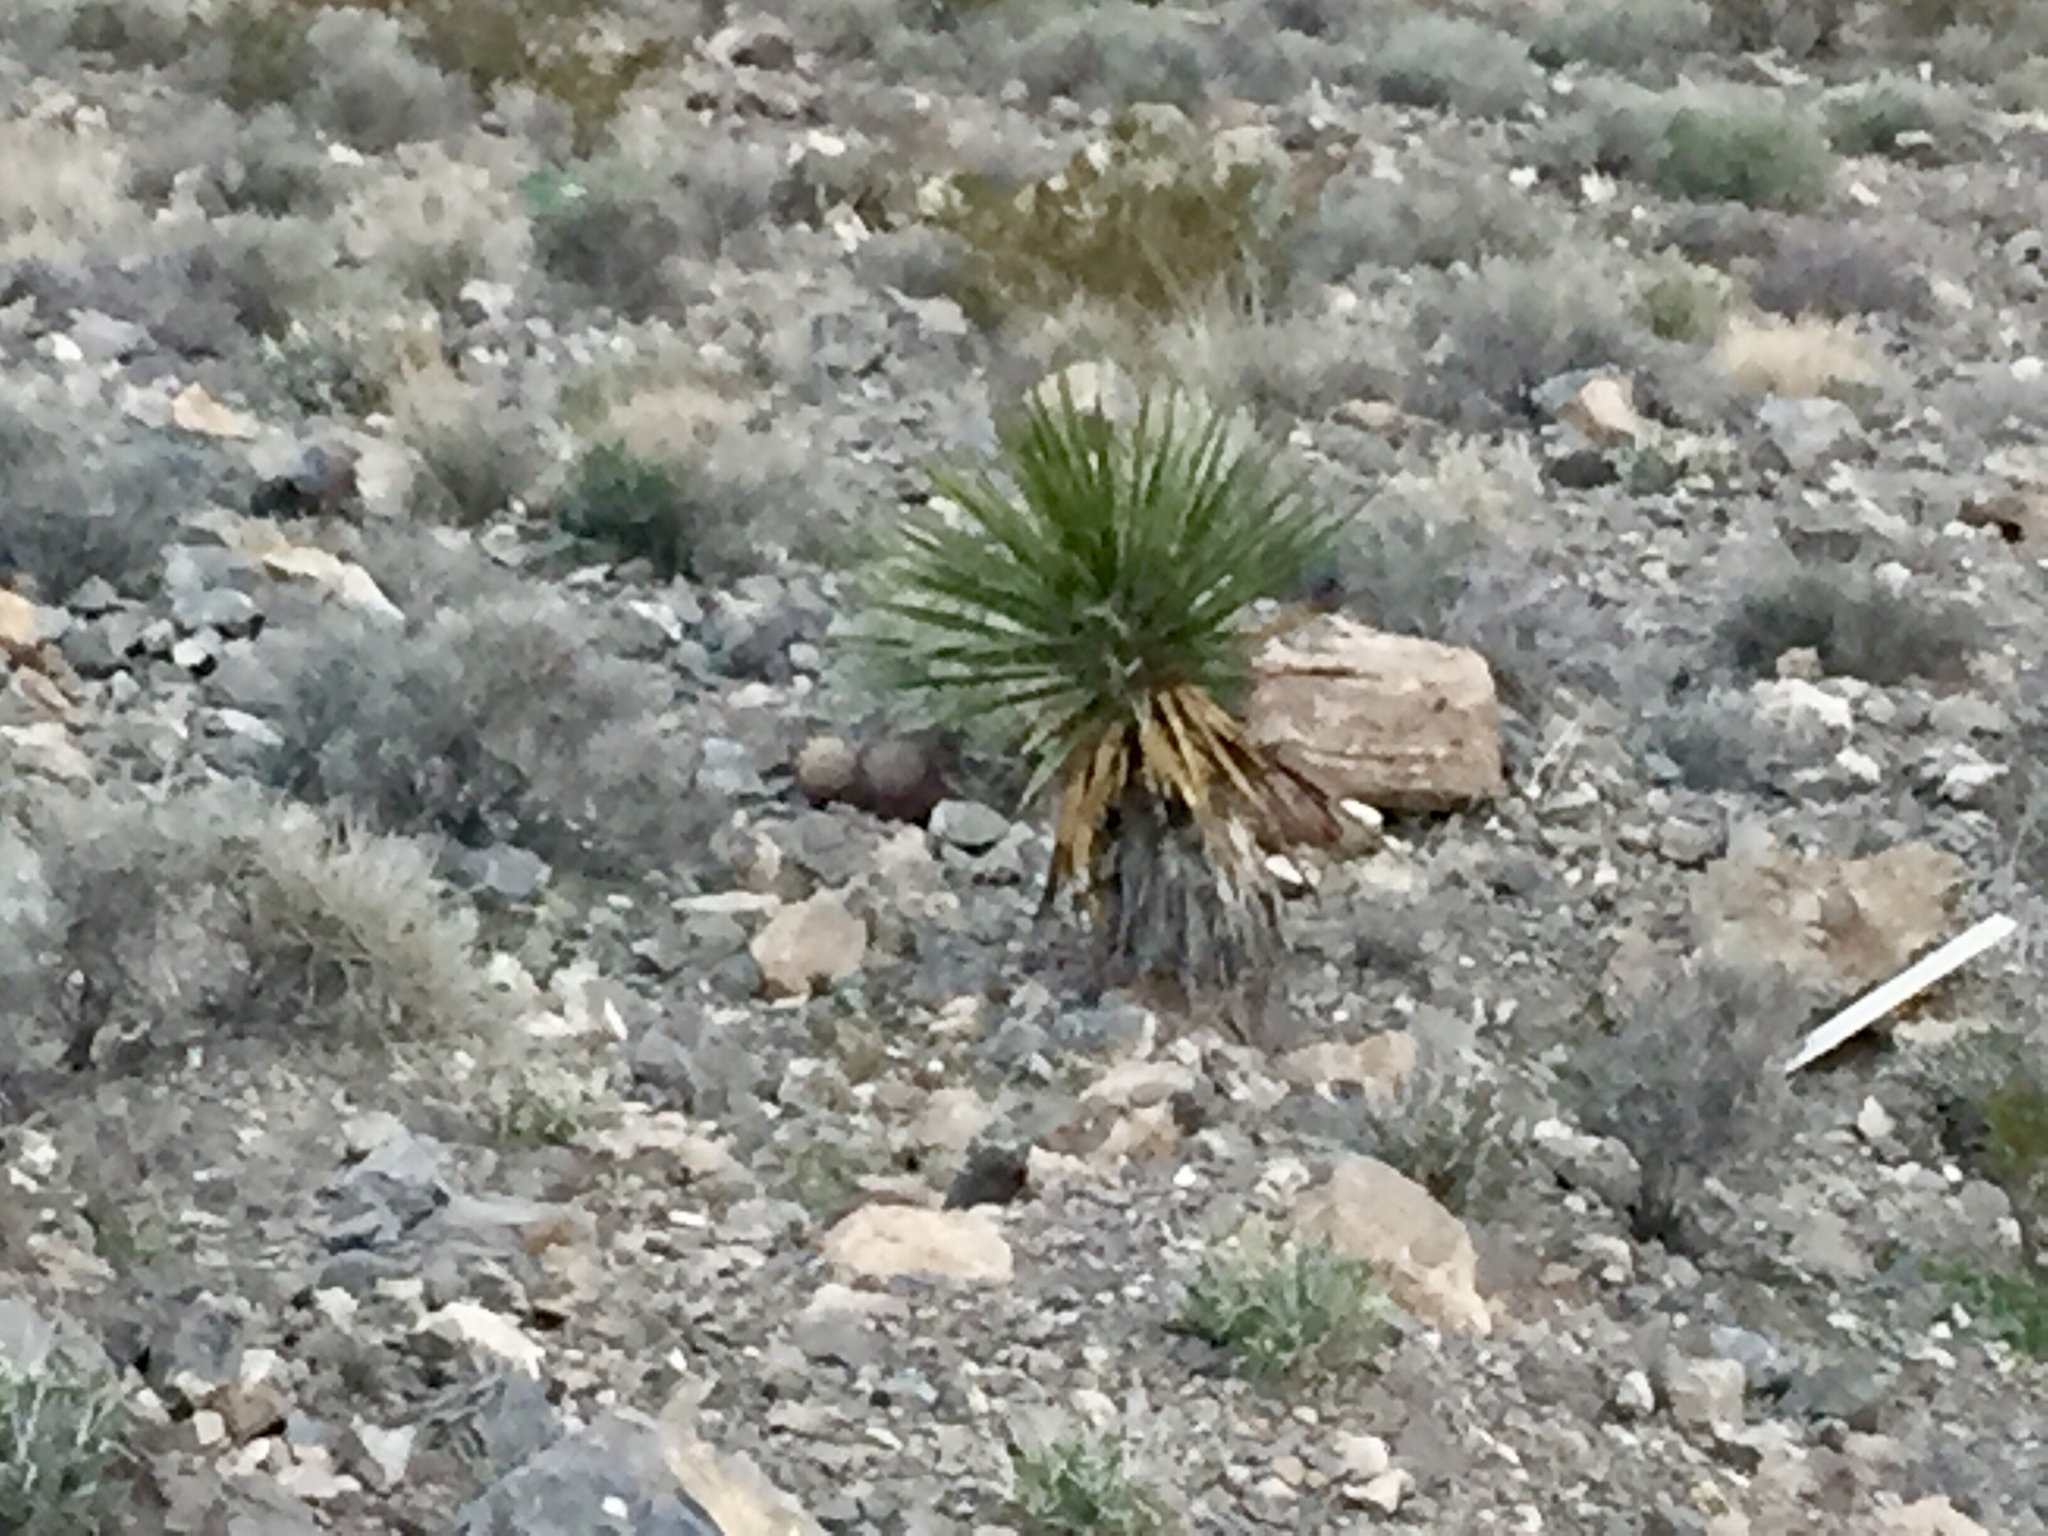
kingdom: Plantae
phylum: Tracheophyta
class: Liliopsida
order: Asparagales
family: Asparagaceae
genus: Yucca
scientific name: Yucca schidigera
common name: Mojave yucca
